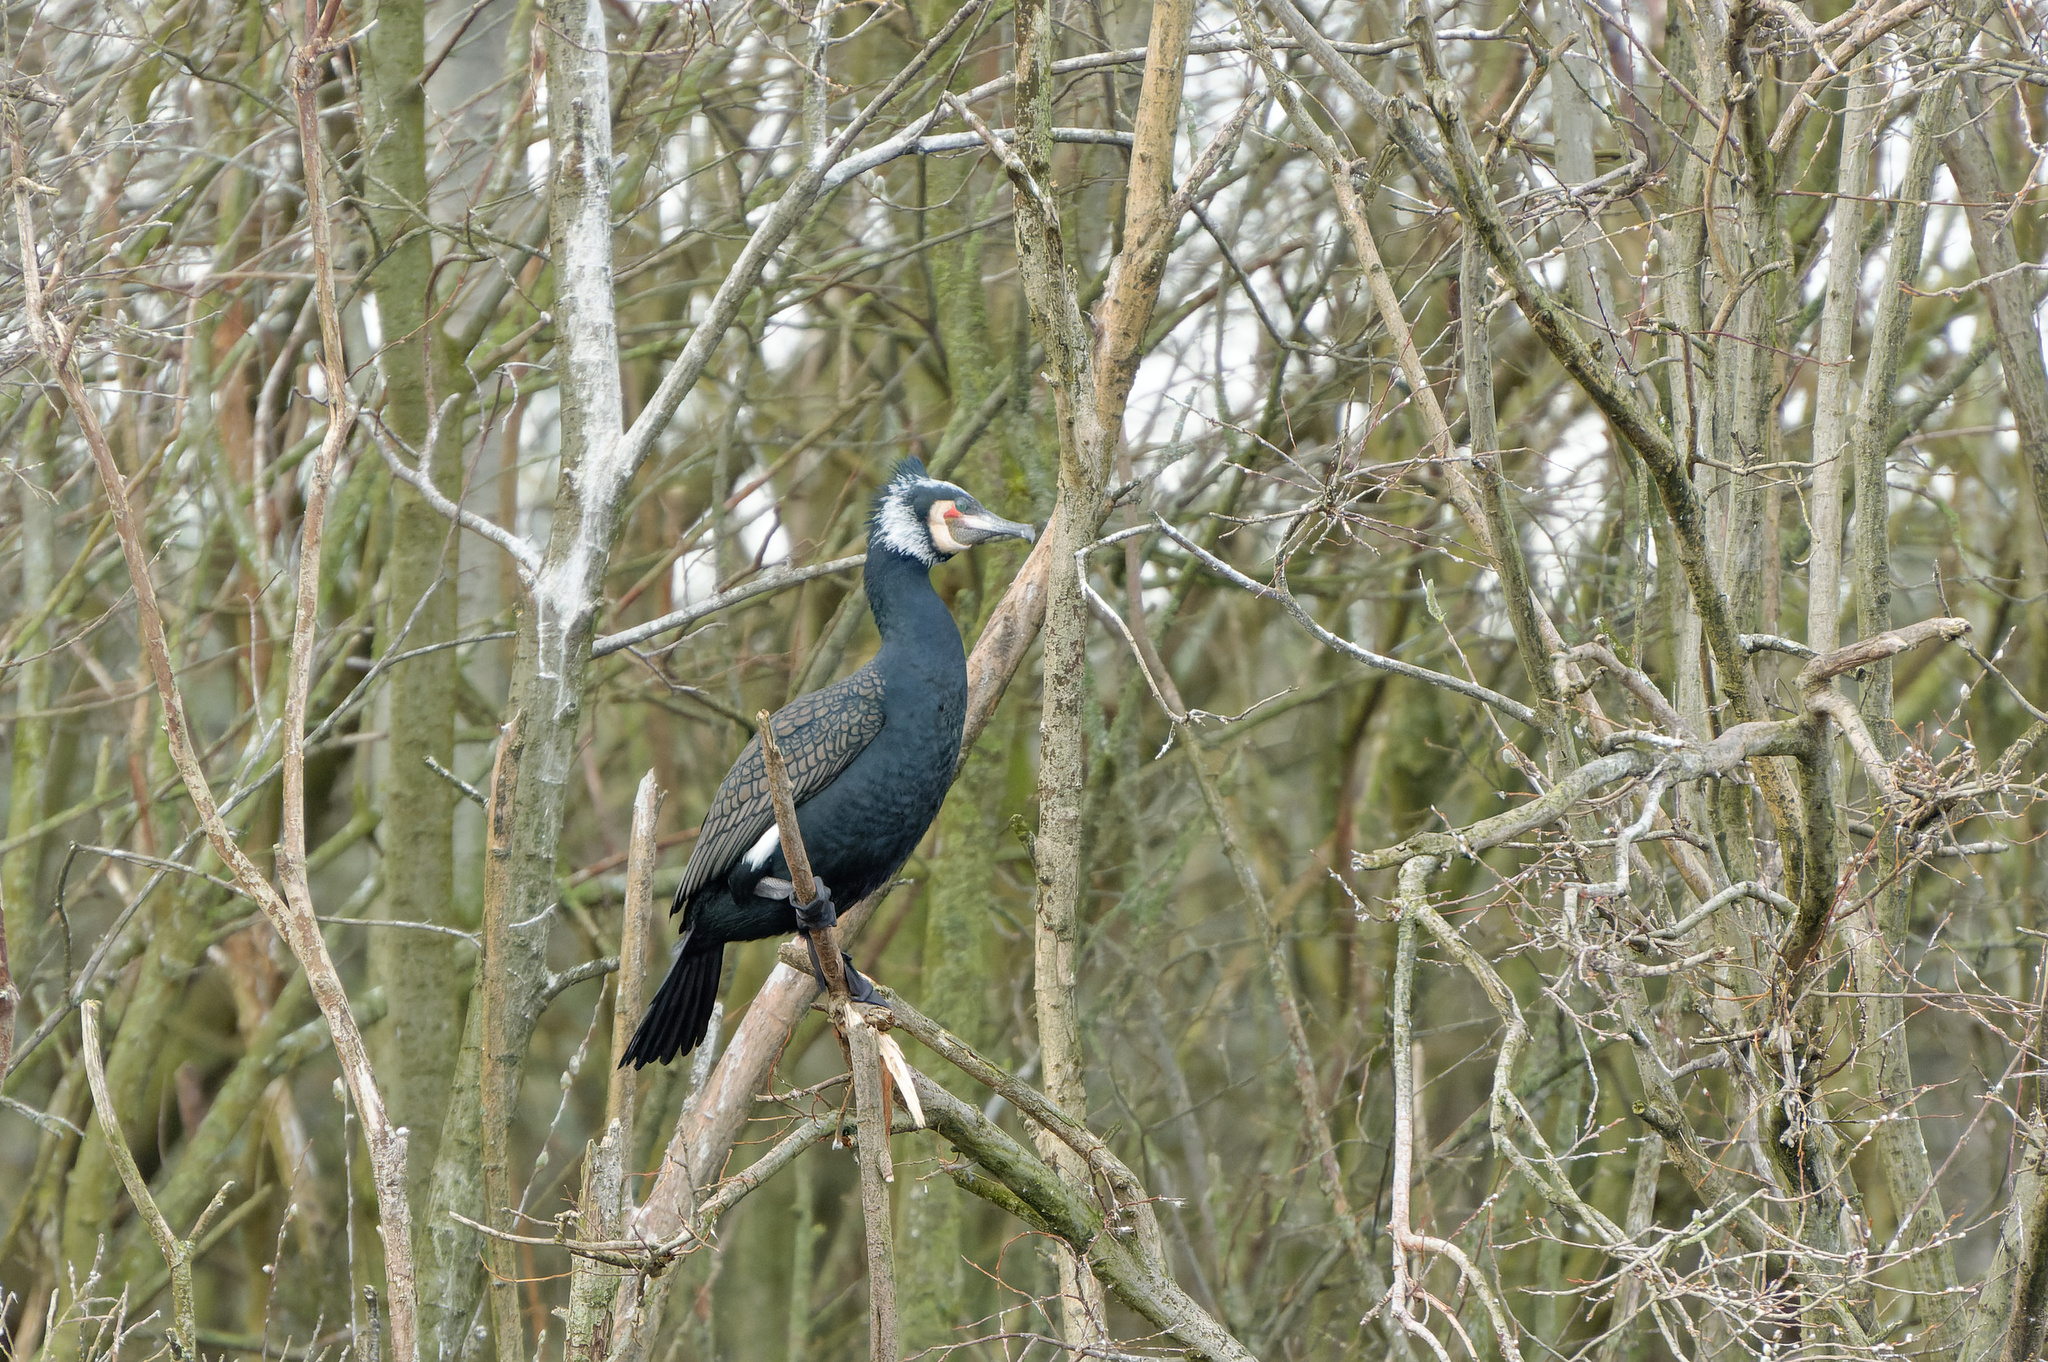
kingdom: Animalia
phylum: Chordata
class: Aves
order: Suliformes
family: Phalacrocoracidae
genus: Phalacrocorax
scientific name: Phalacrocorax carbo
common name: Great cormorant
